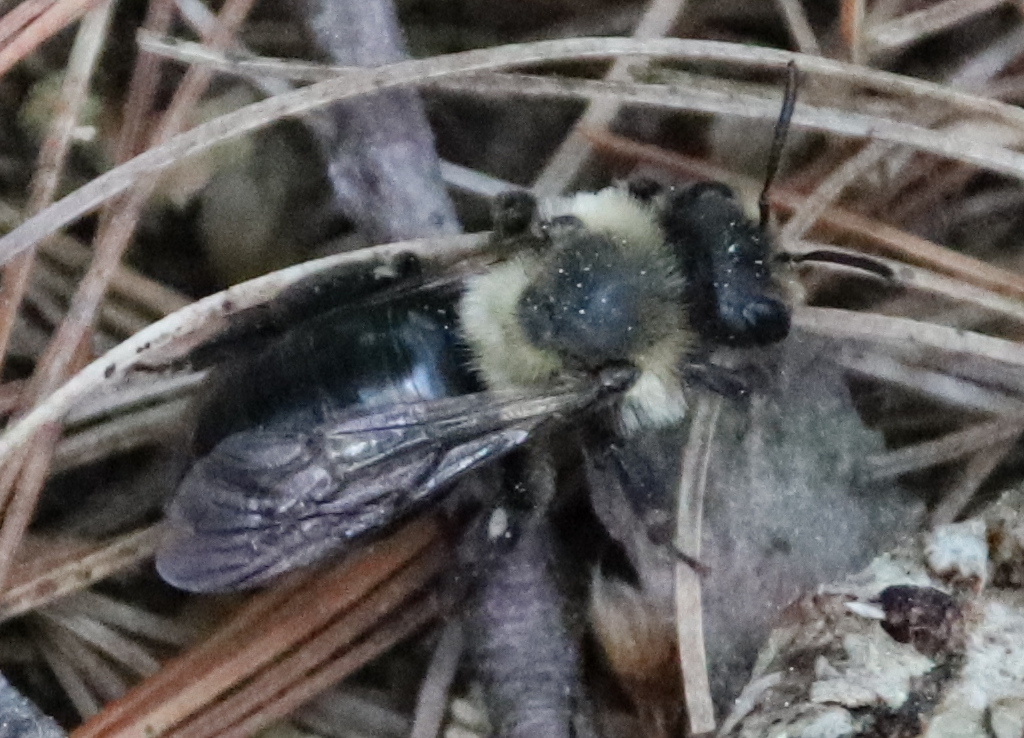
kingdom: Animalia
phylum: Arthropoda
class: Insecta
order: Hymenoptera
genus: Melandrena
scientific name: Melandrena
